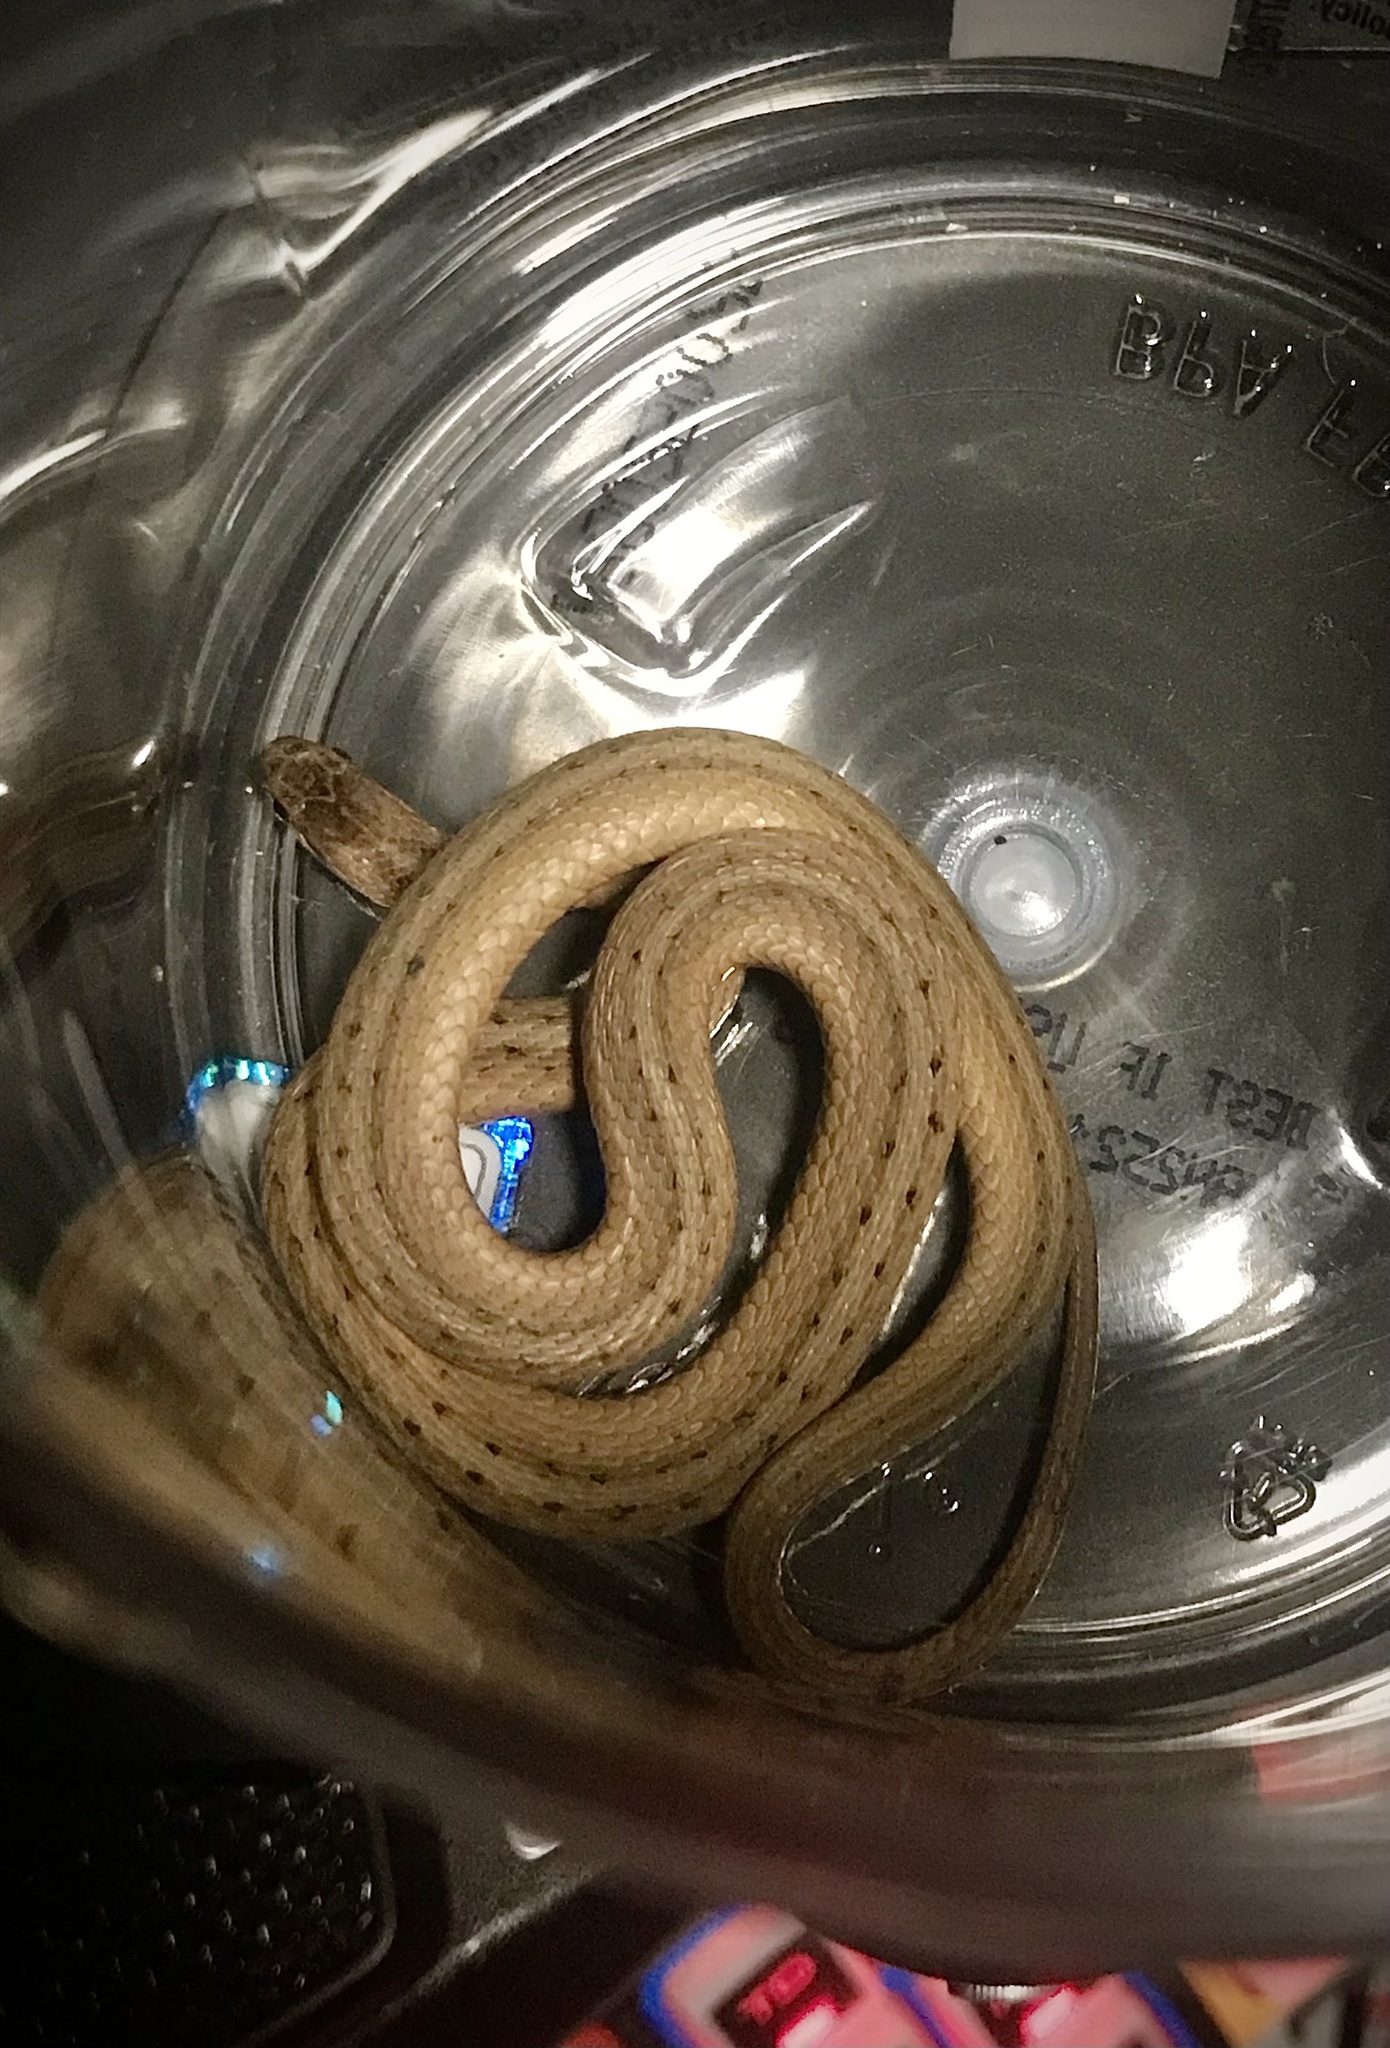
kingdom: Animalia
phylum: Chordata
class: Squamata
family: Colubridae
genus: Storeria
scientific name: Storeria dekayi
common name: (dekay’s) brown snake
